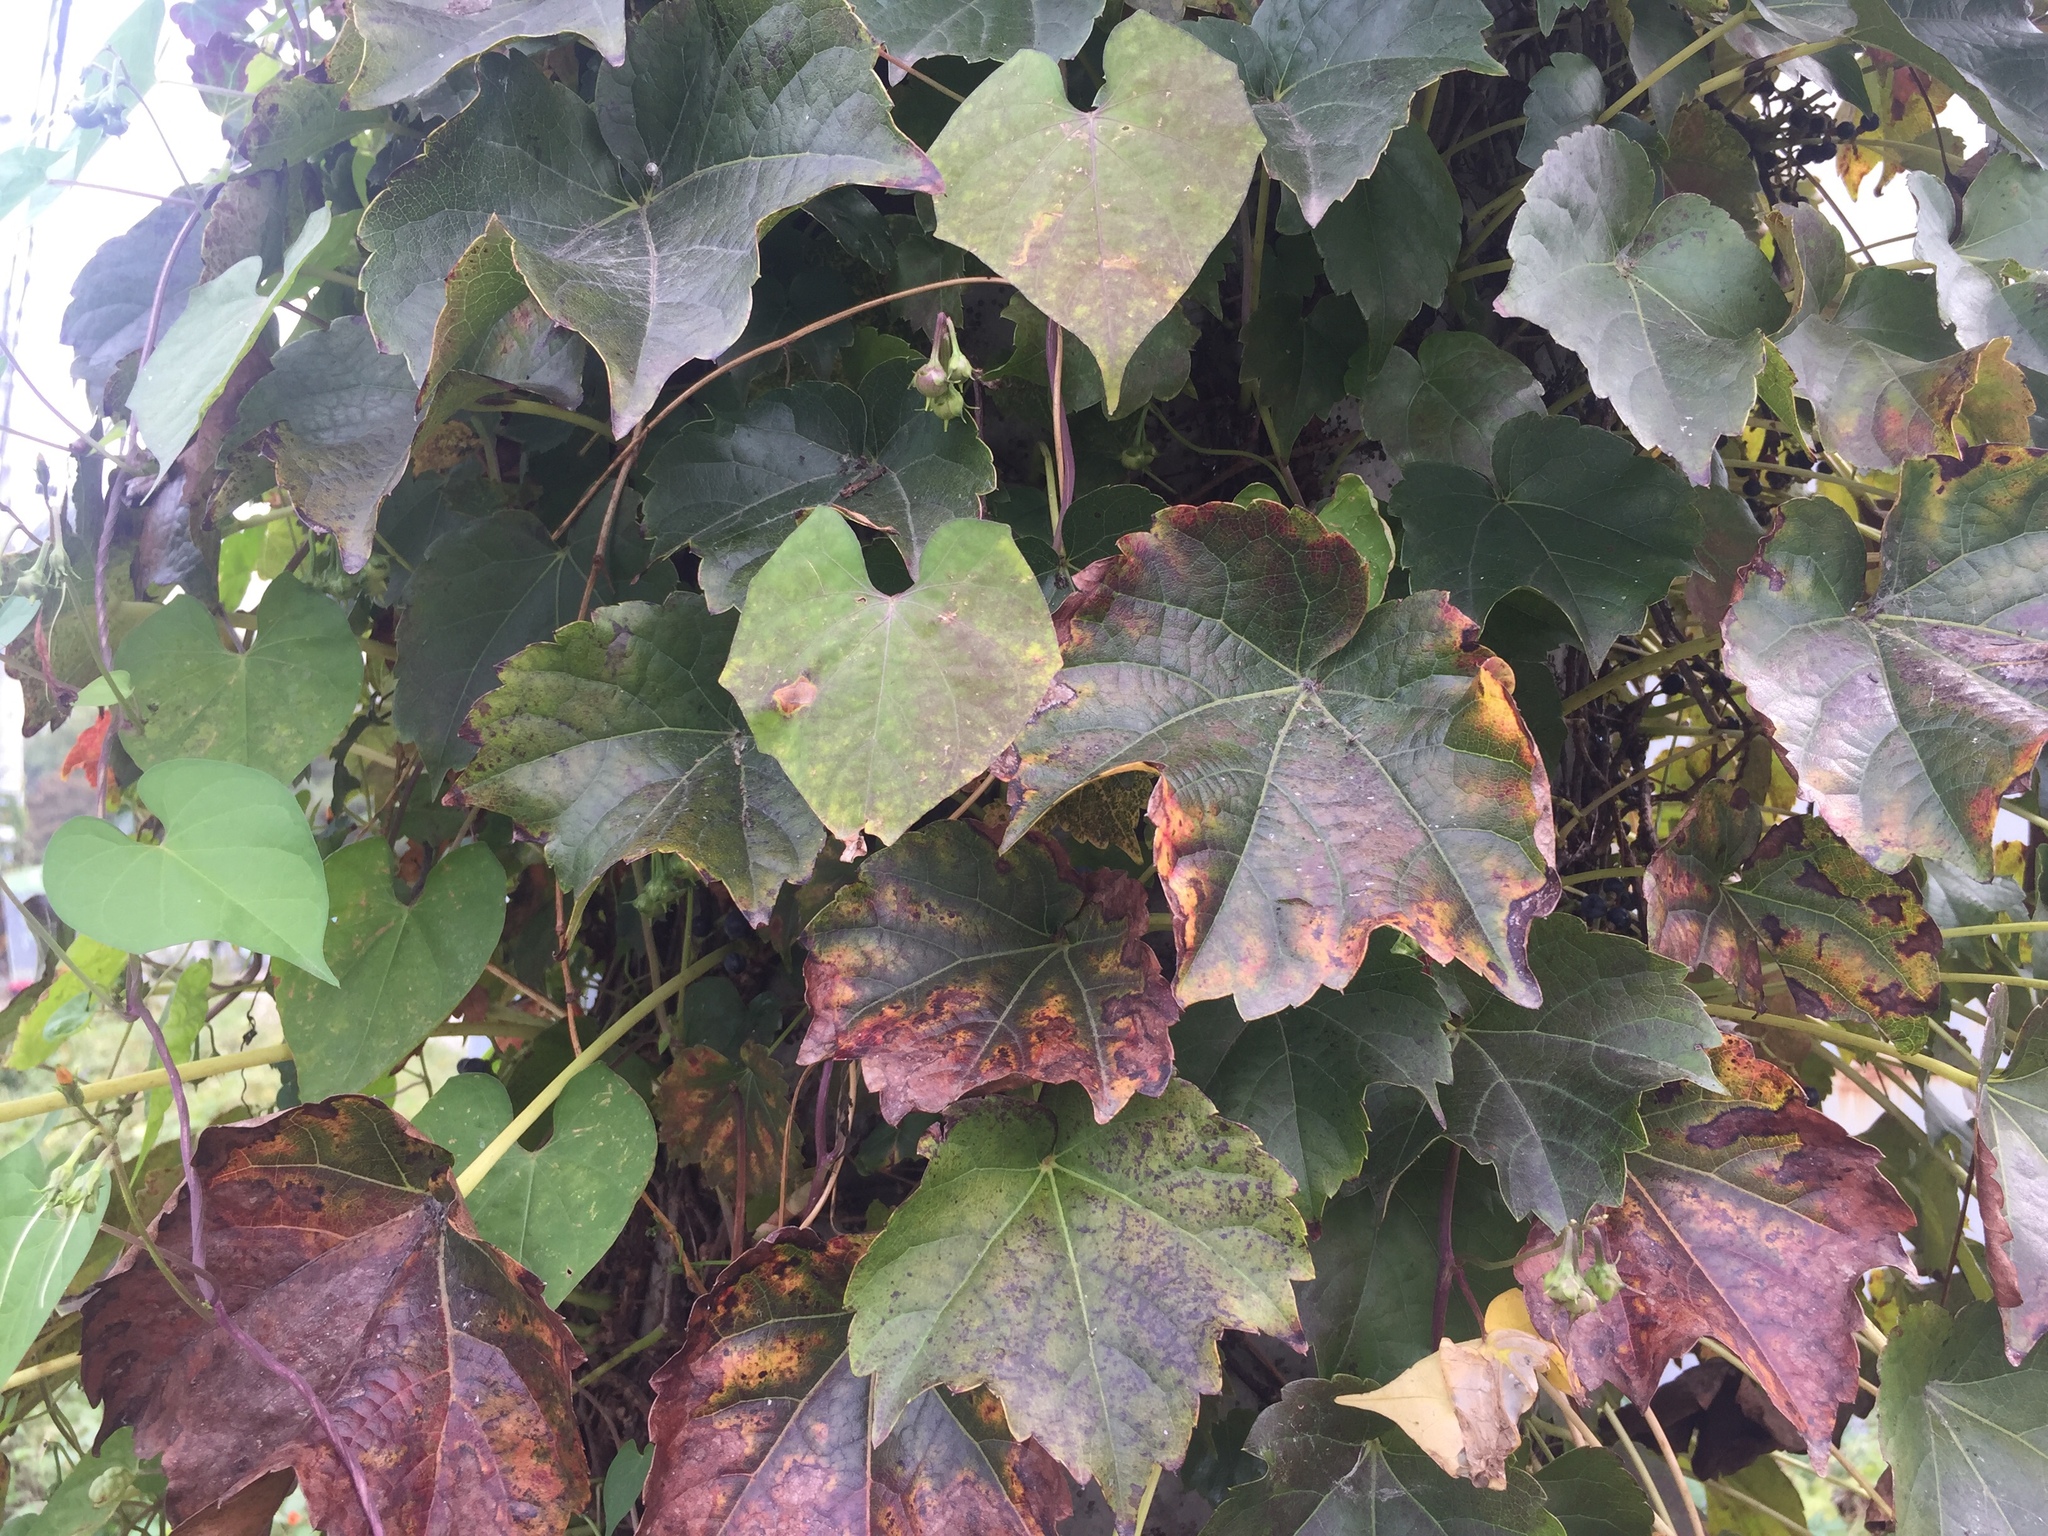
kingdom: Plantae
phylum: Tracheophyta
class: Magnoliopsida
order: Vitales
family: Vitaceae
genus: Parthenocissus
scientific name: Parthenocissus tricuspidata
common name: Boston ivy
